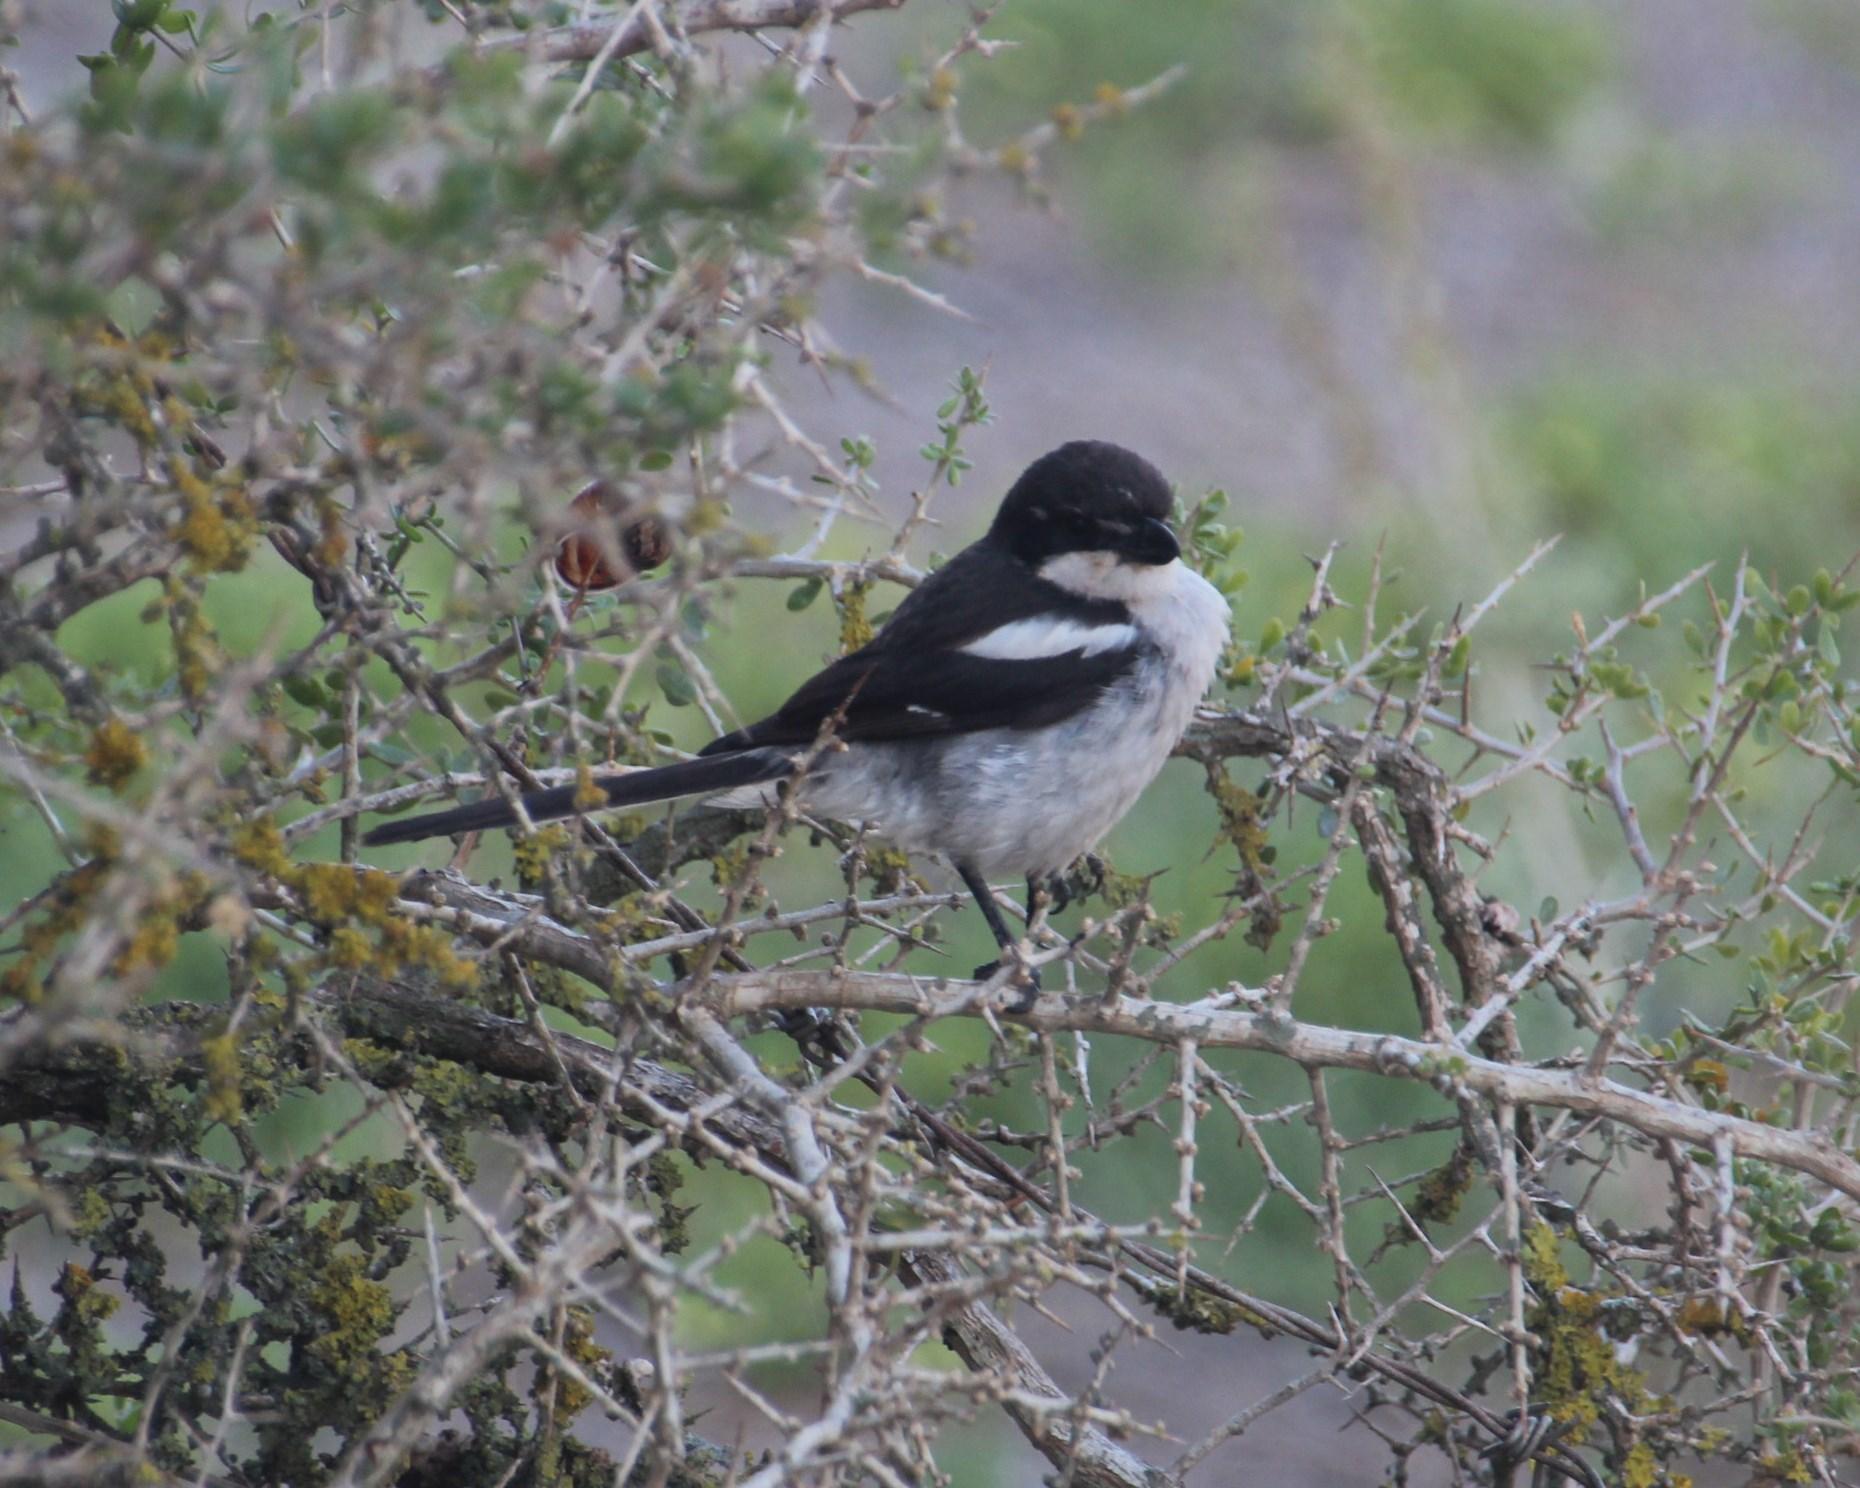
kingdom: Animalia
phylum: Chordata
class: Aves
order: Passeriformes
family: Laniidae
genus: Lanius
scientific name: Lanius collaris
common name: Southern fiscal
